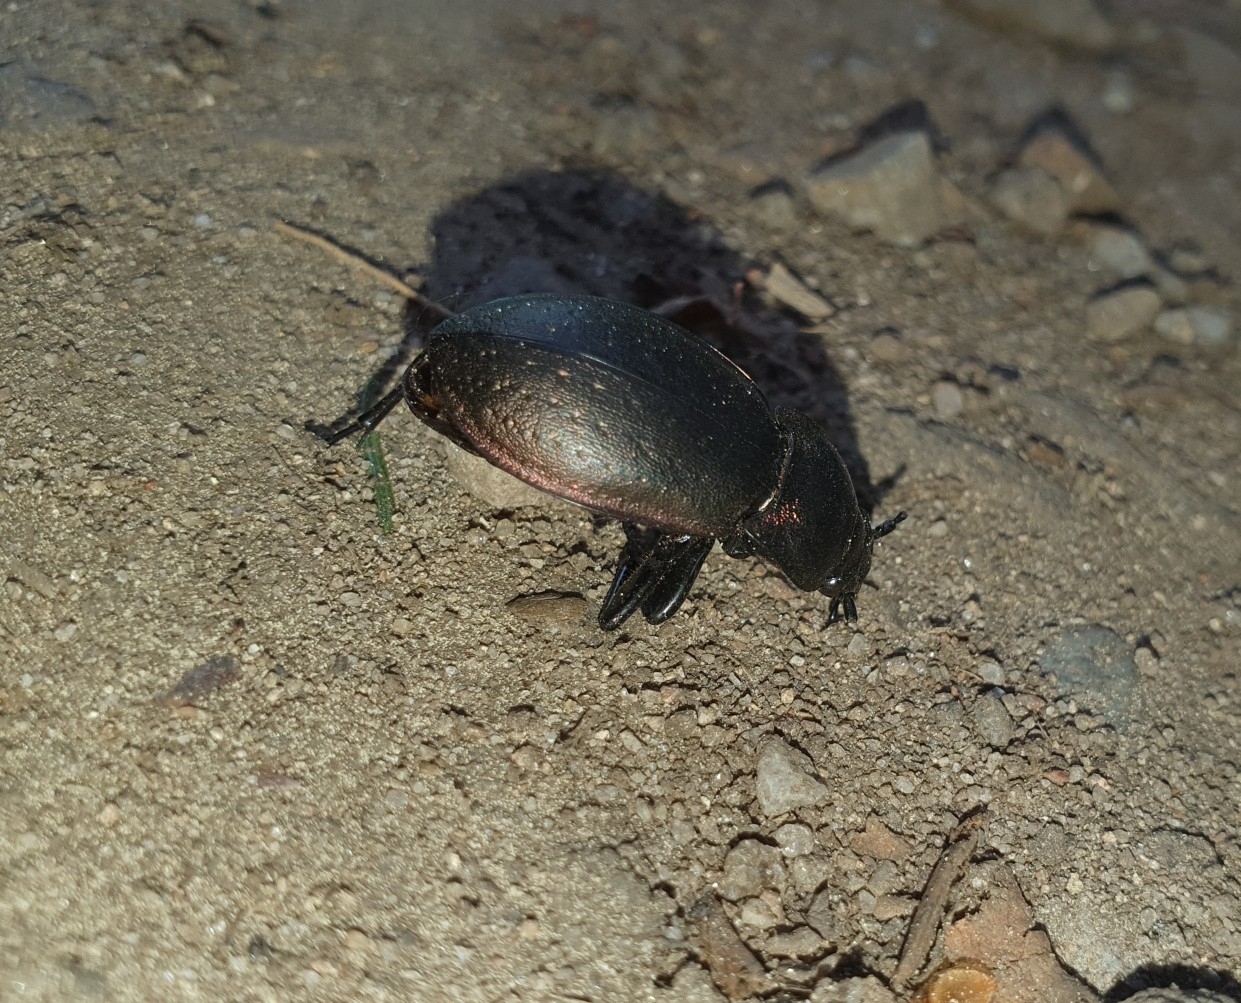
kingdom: Animalia
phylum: Arthropoda
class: Insecta
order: Coleoptera
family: Carabidae
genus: Carabus
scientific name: Carabus nemoralis
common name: European ground beetle
